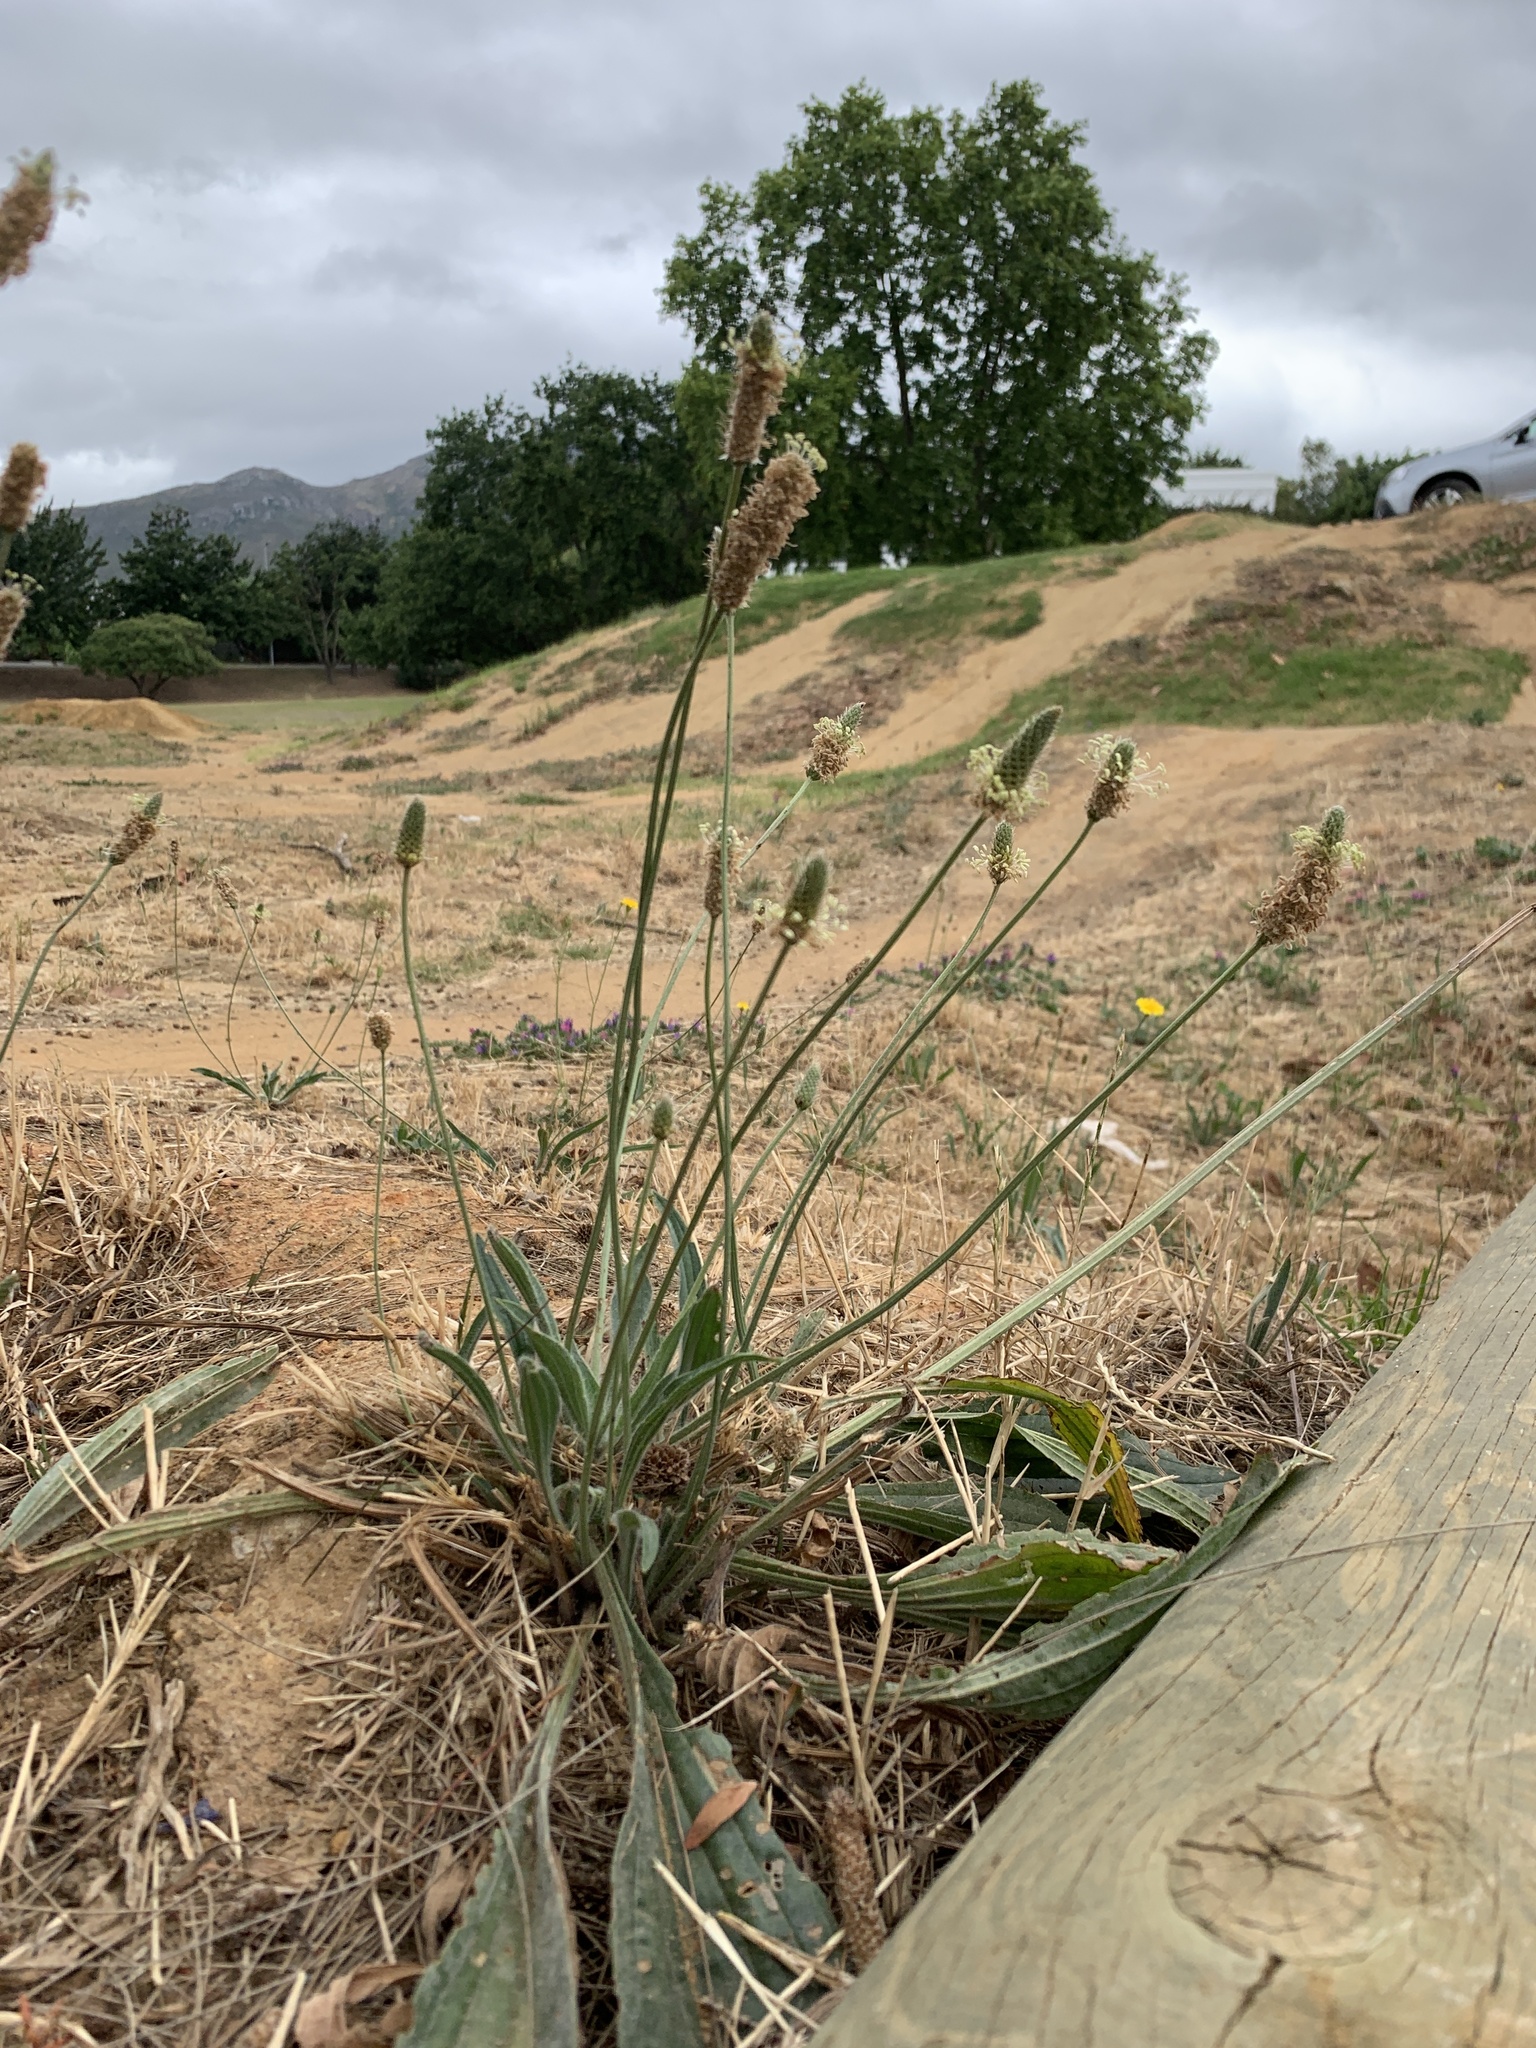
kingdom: Plantae
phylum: Tracheophyta
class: Magnoliopsida
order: Lamiales
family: Plantaginaceae
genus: Plantago
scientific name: Plantago lanceolata
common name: Ribwort plantain
